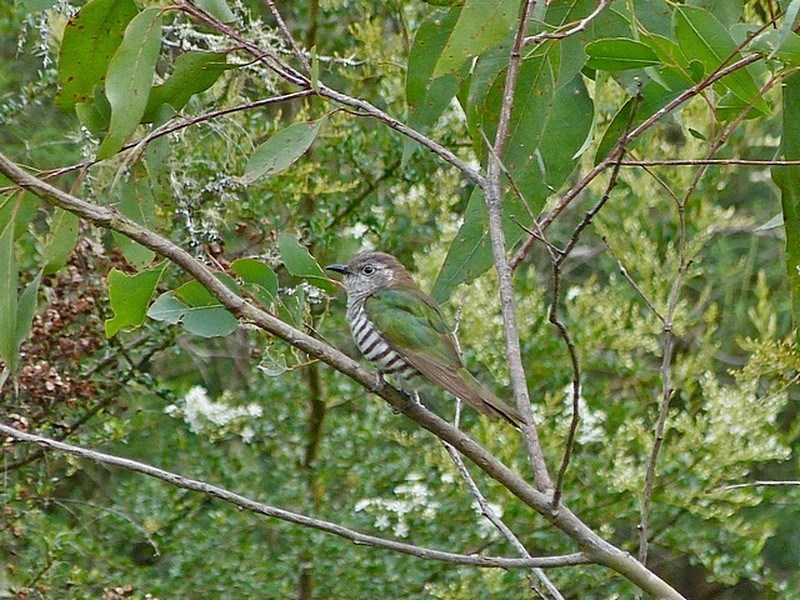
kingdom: Animalia
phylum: Chordata
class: Aves
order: Cuculiformes
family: Cuculidae
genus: Chrysococcyx
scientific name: Chrysococcyx lucidus
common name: Shining bronze cuckoo
